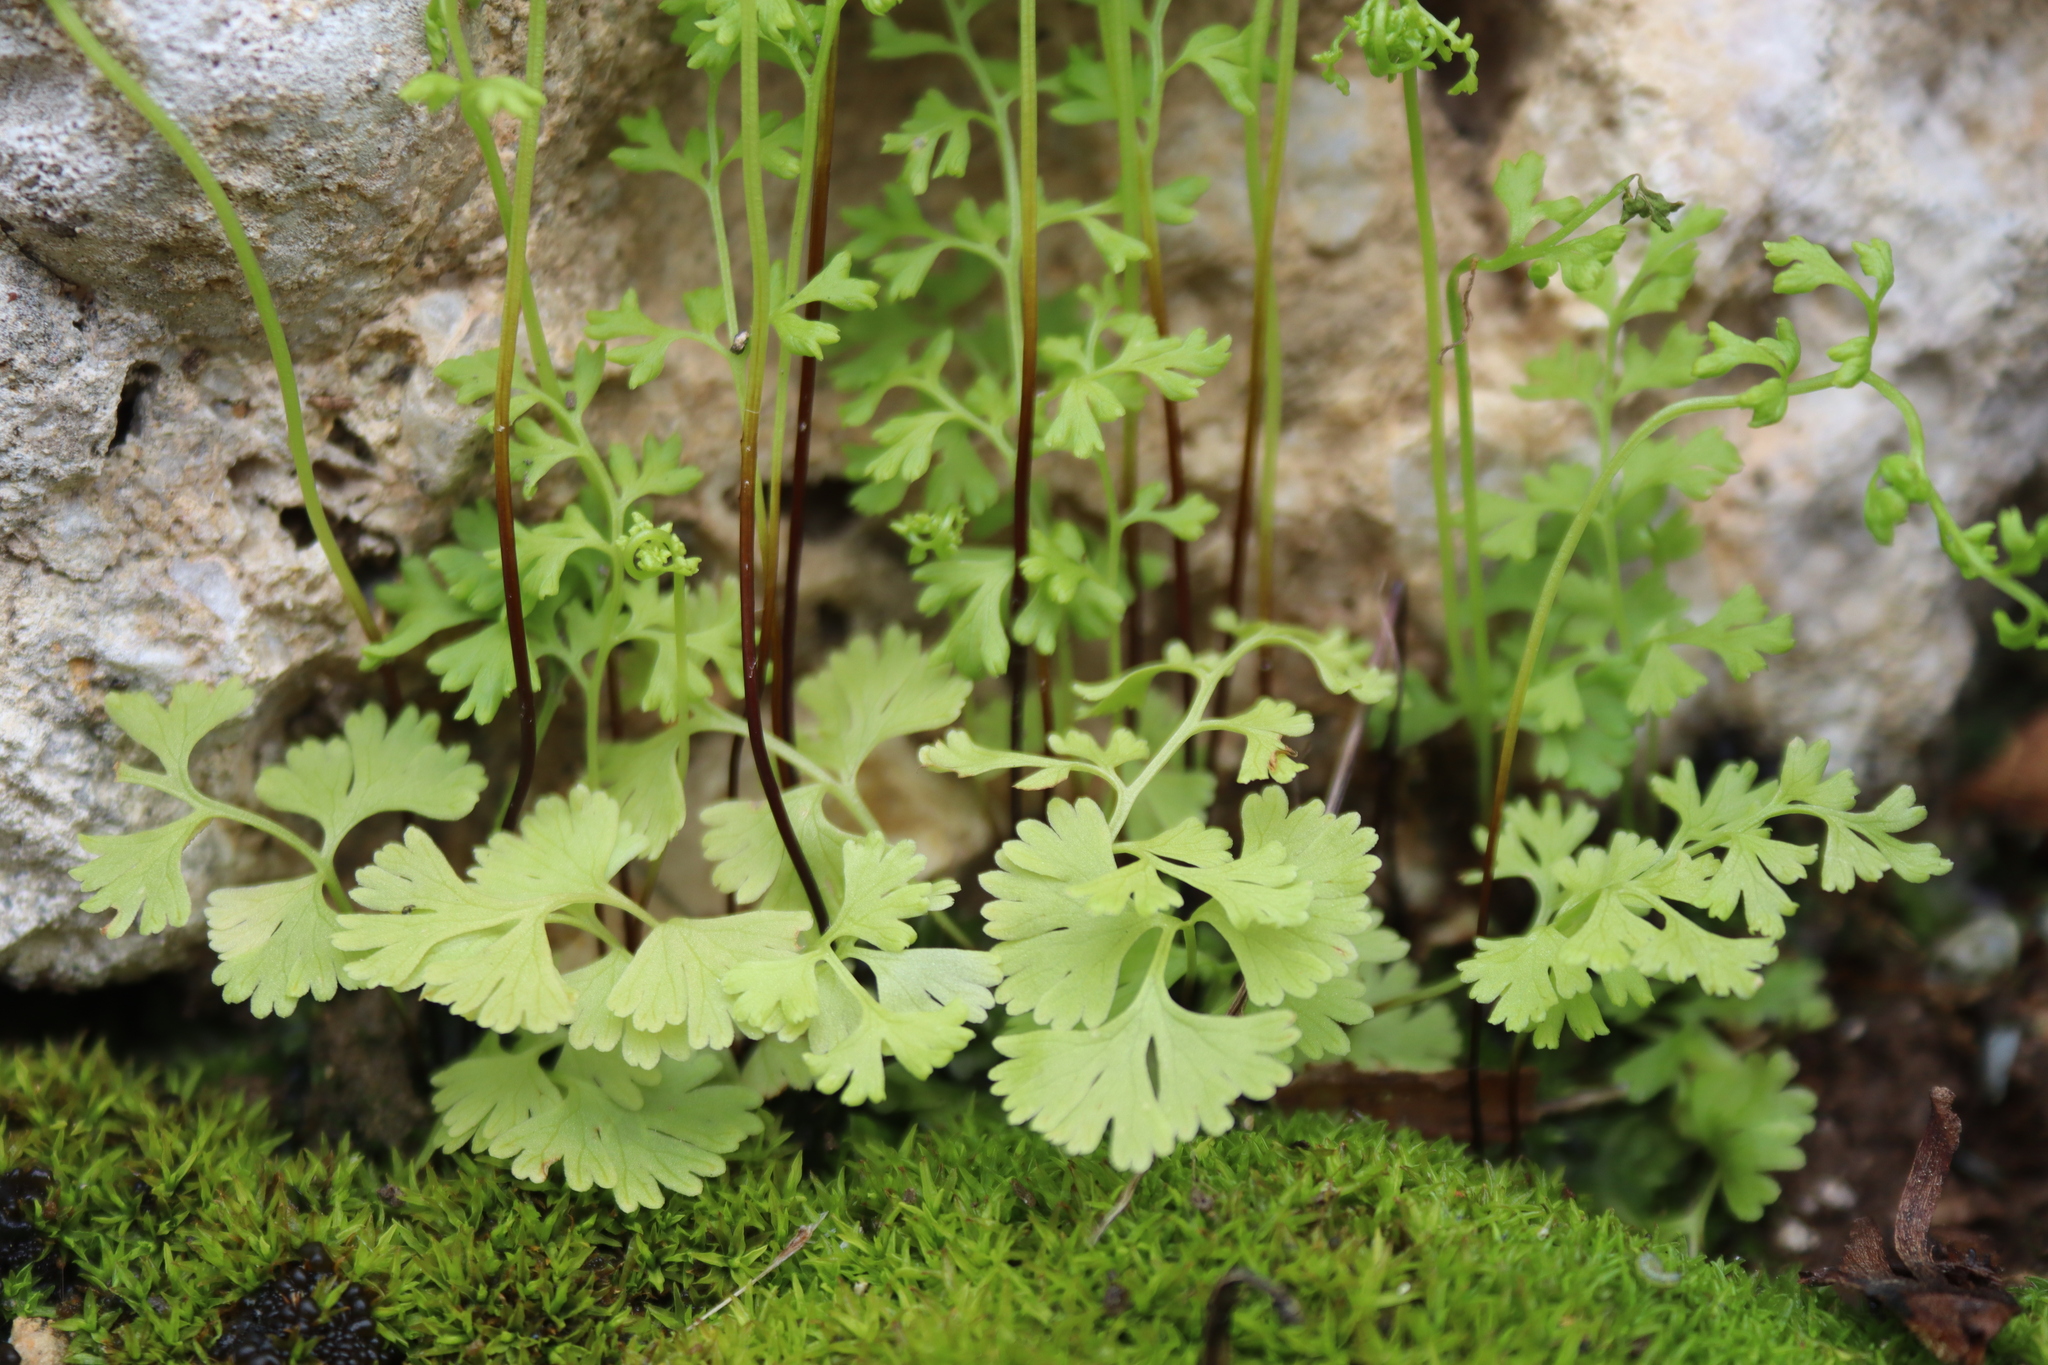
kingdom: Plantae
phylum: Tracheophyta
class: Polypodiopsida
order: Polypodiales
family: Pteridaceae
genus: Anogramma
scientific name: Anogramma leptophylla
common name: Jersey fern
